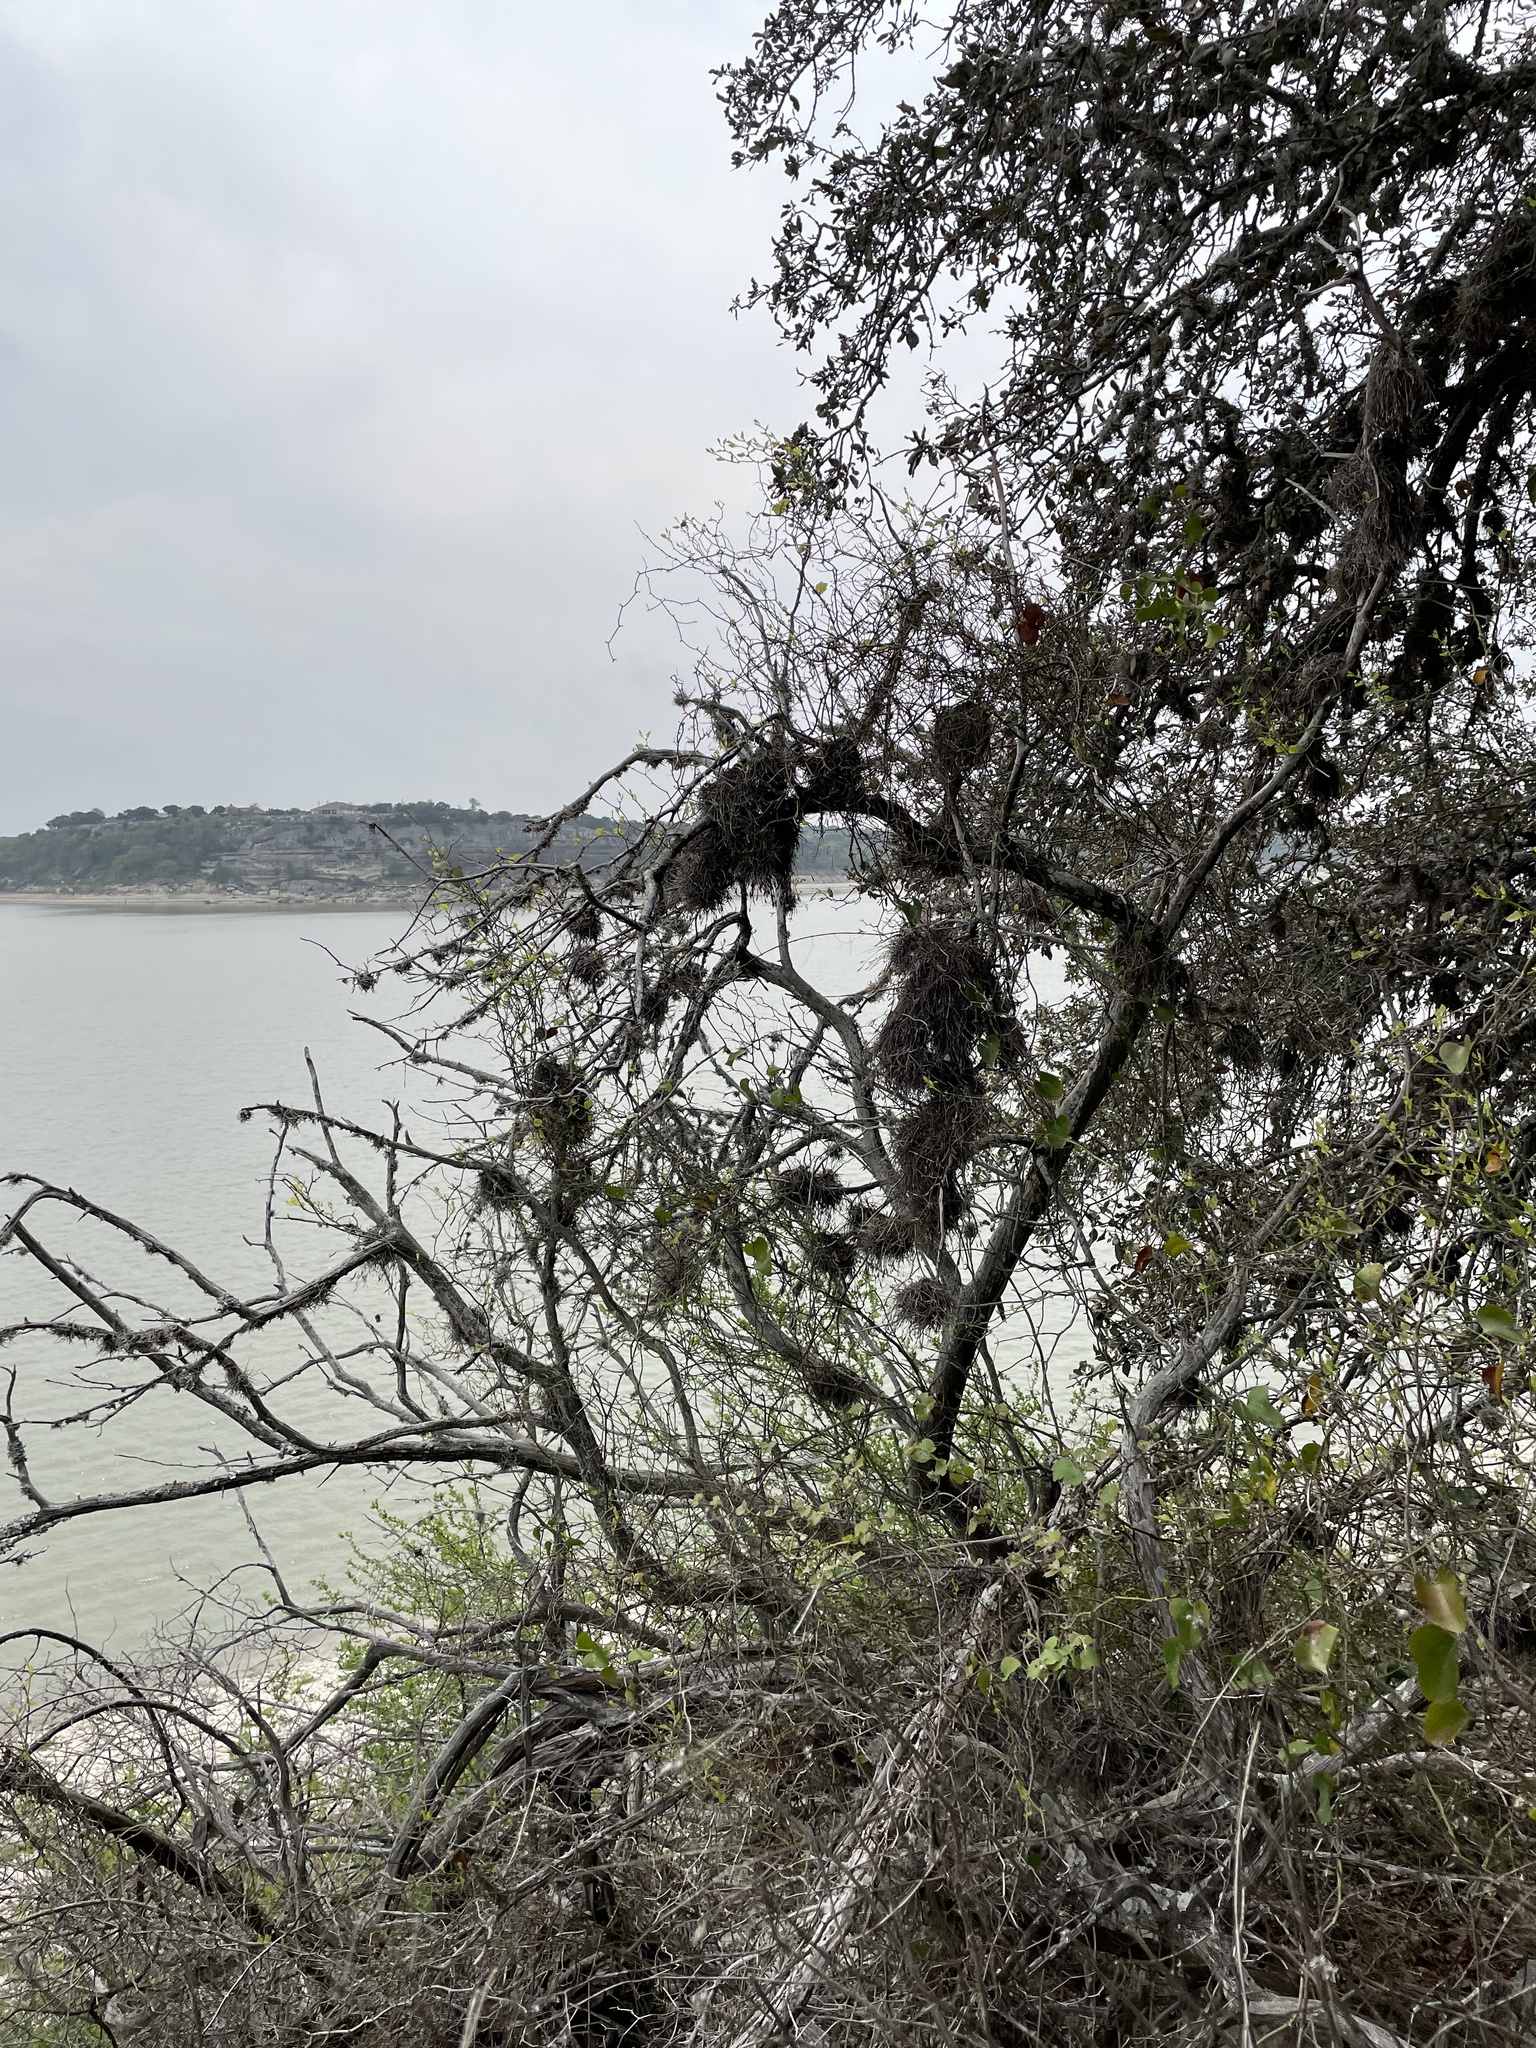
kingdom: Plantae
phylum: Tracheophyta
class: Liliopsida
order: Poales
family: Bromeliaceae
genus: Tillandsia
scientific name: Tillandsia recurvata
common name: Small ballmoss
